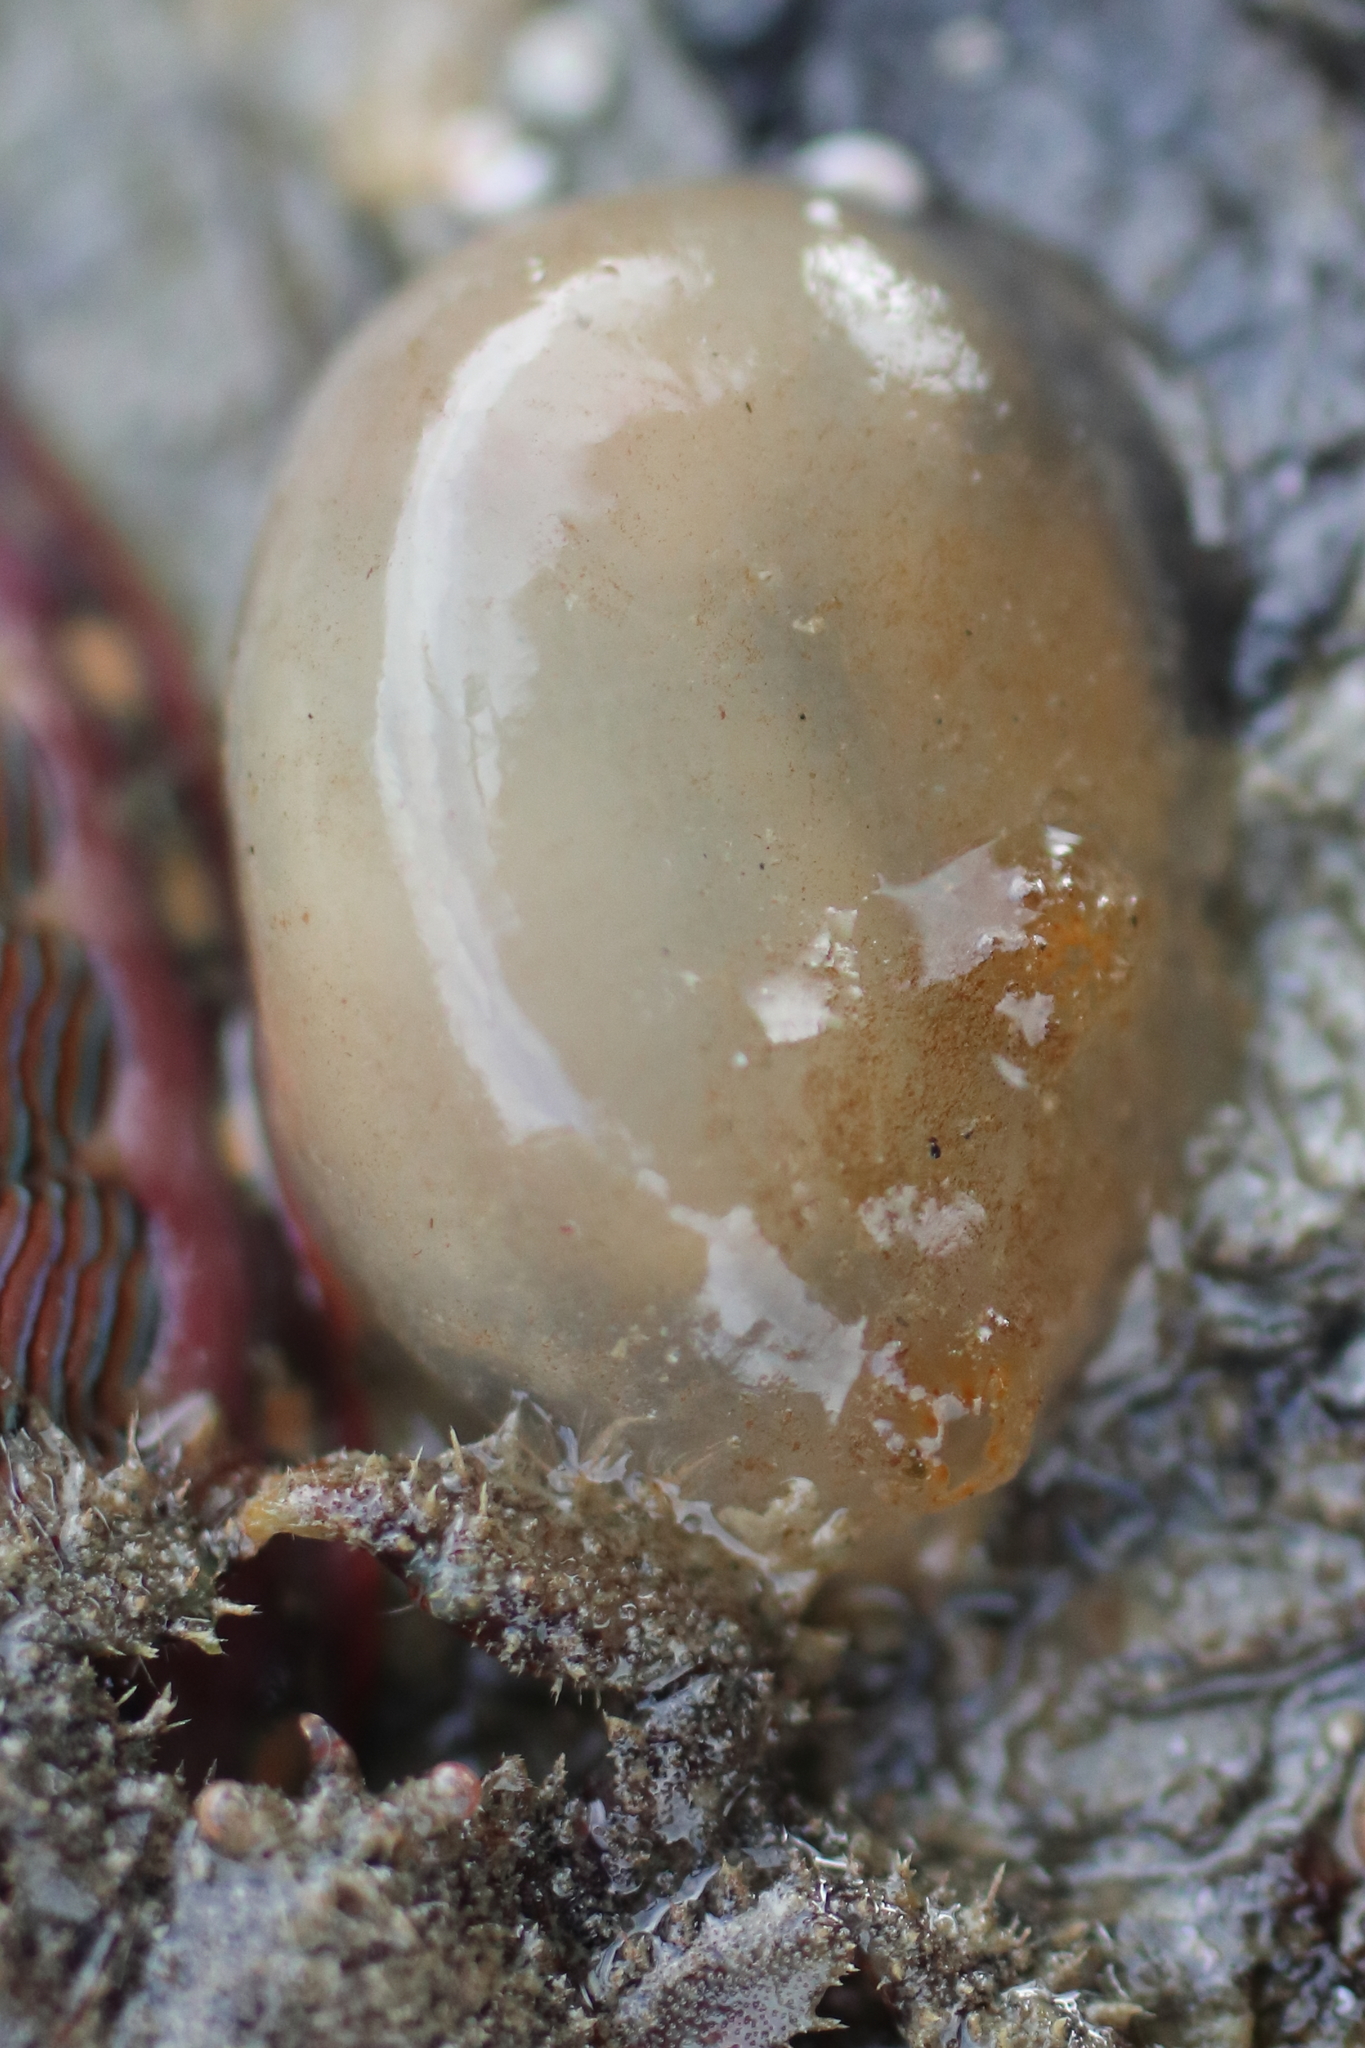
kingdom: Animalia
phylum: Chordata
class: Ascidiacea
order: Phlebobranchia
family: Corellidae
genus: Chelyosoma
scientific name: Chelyosoma productum
